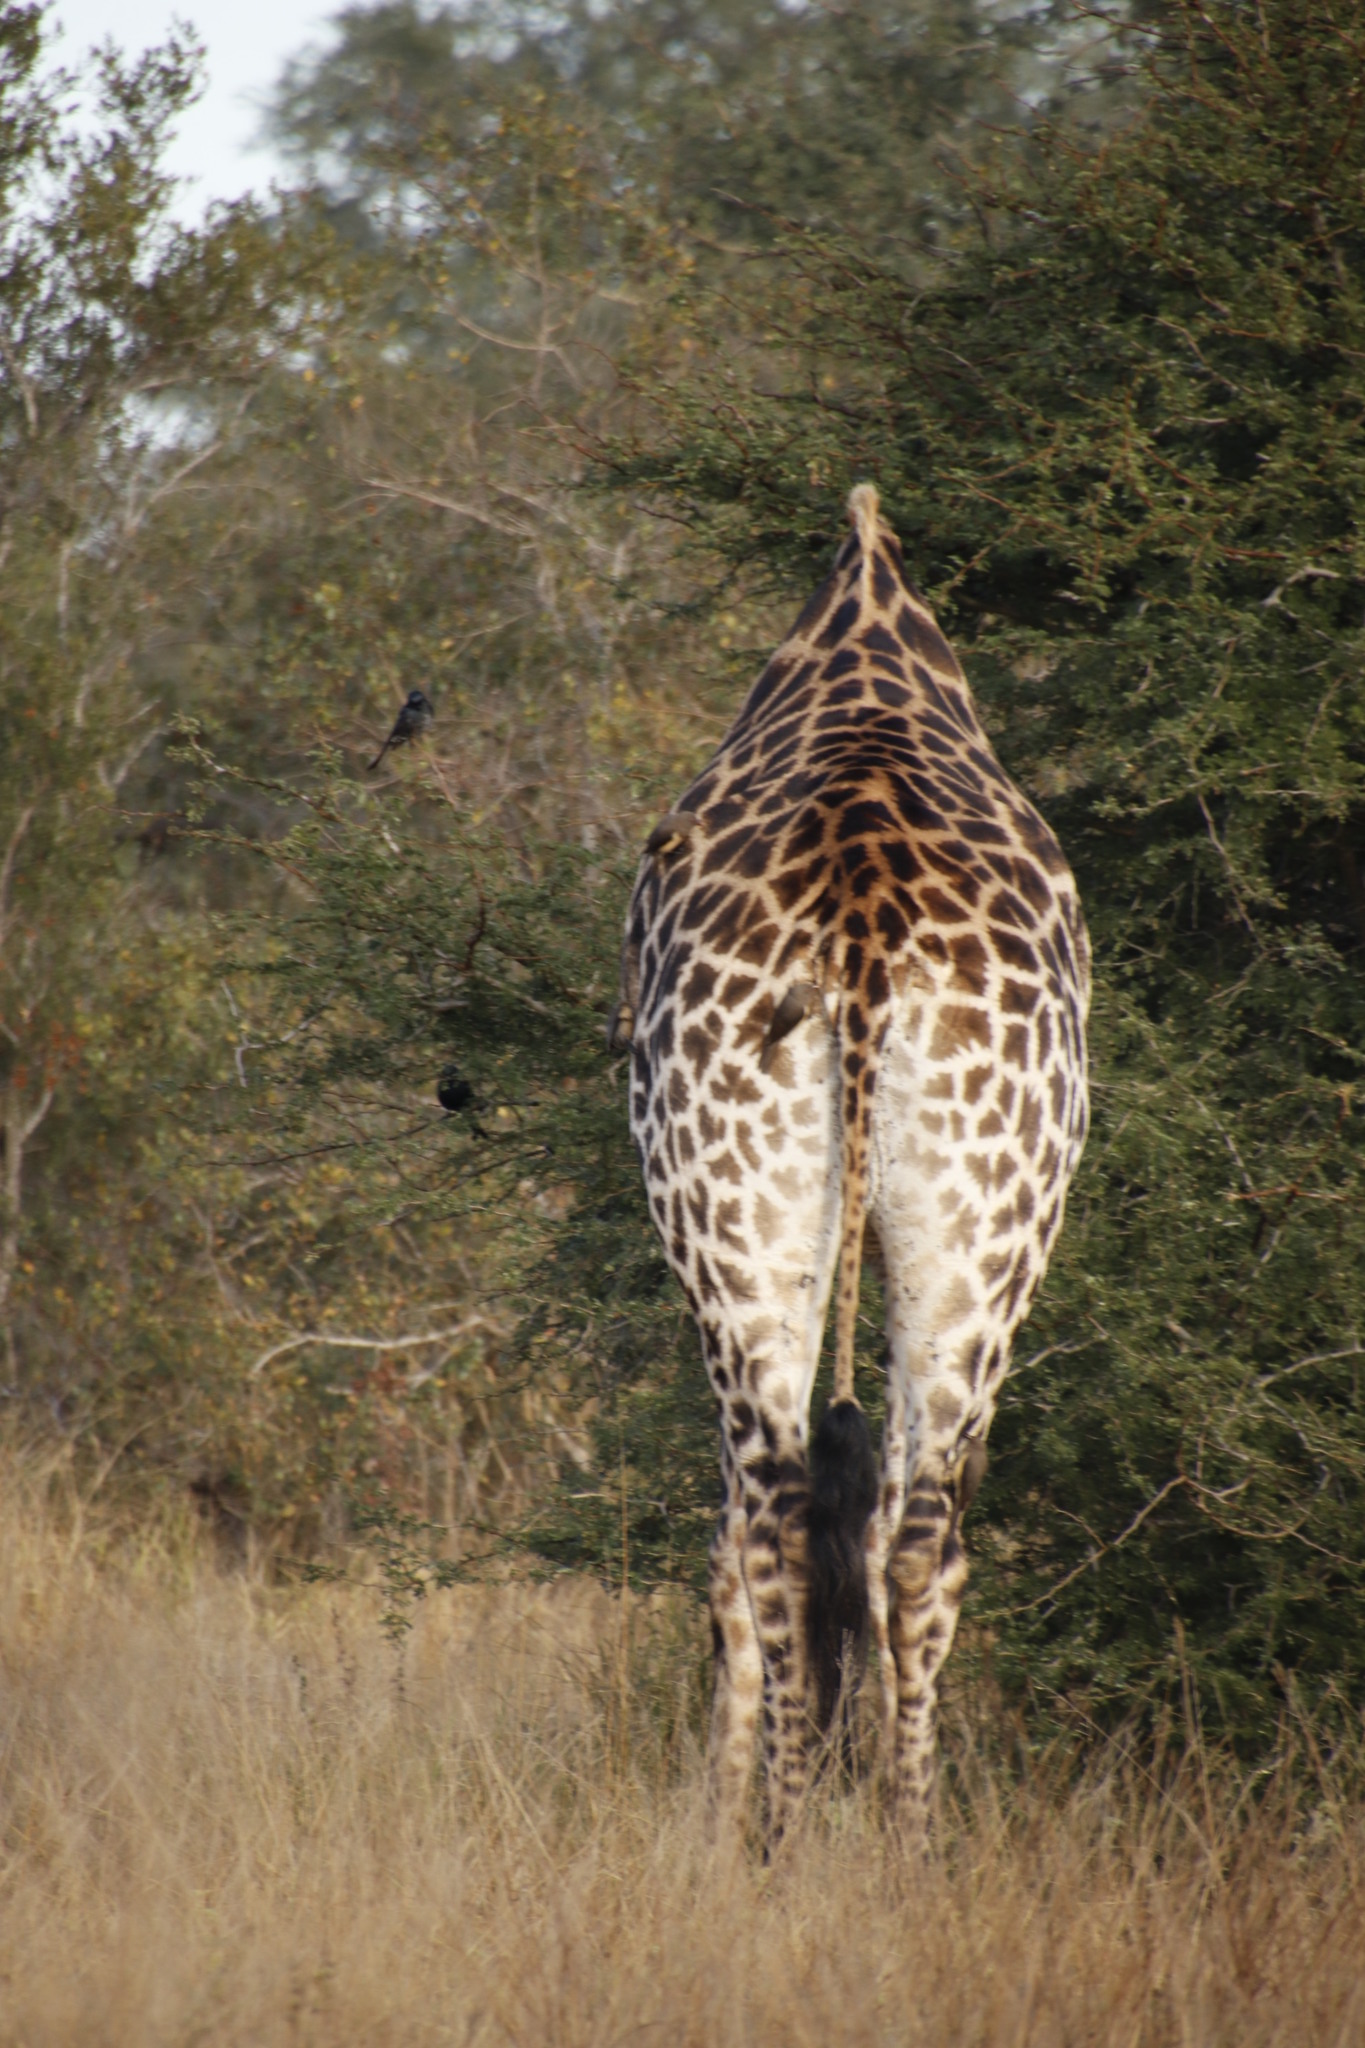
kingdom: Animalia
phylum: Chordata
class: Mammalia
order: Artiodactyla
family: Giraffidae
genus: Giraffa
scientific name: Giraffa giraffa
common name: Southern giraffe
